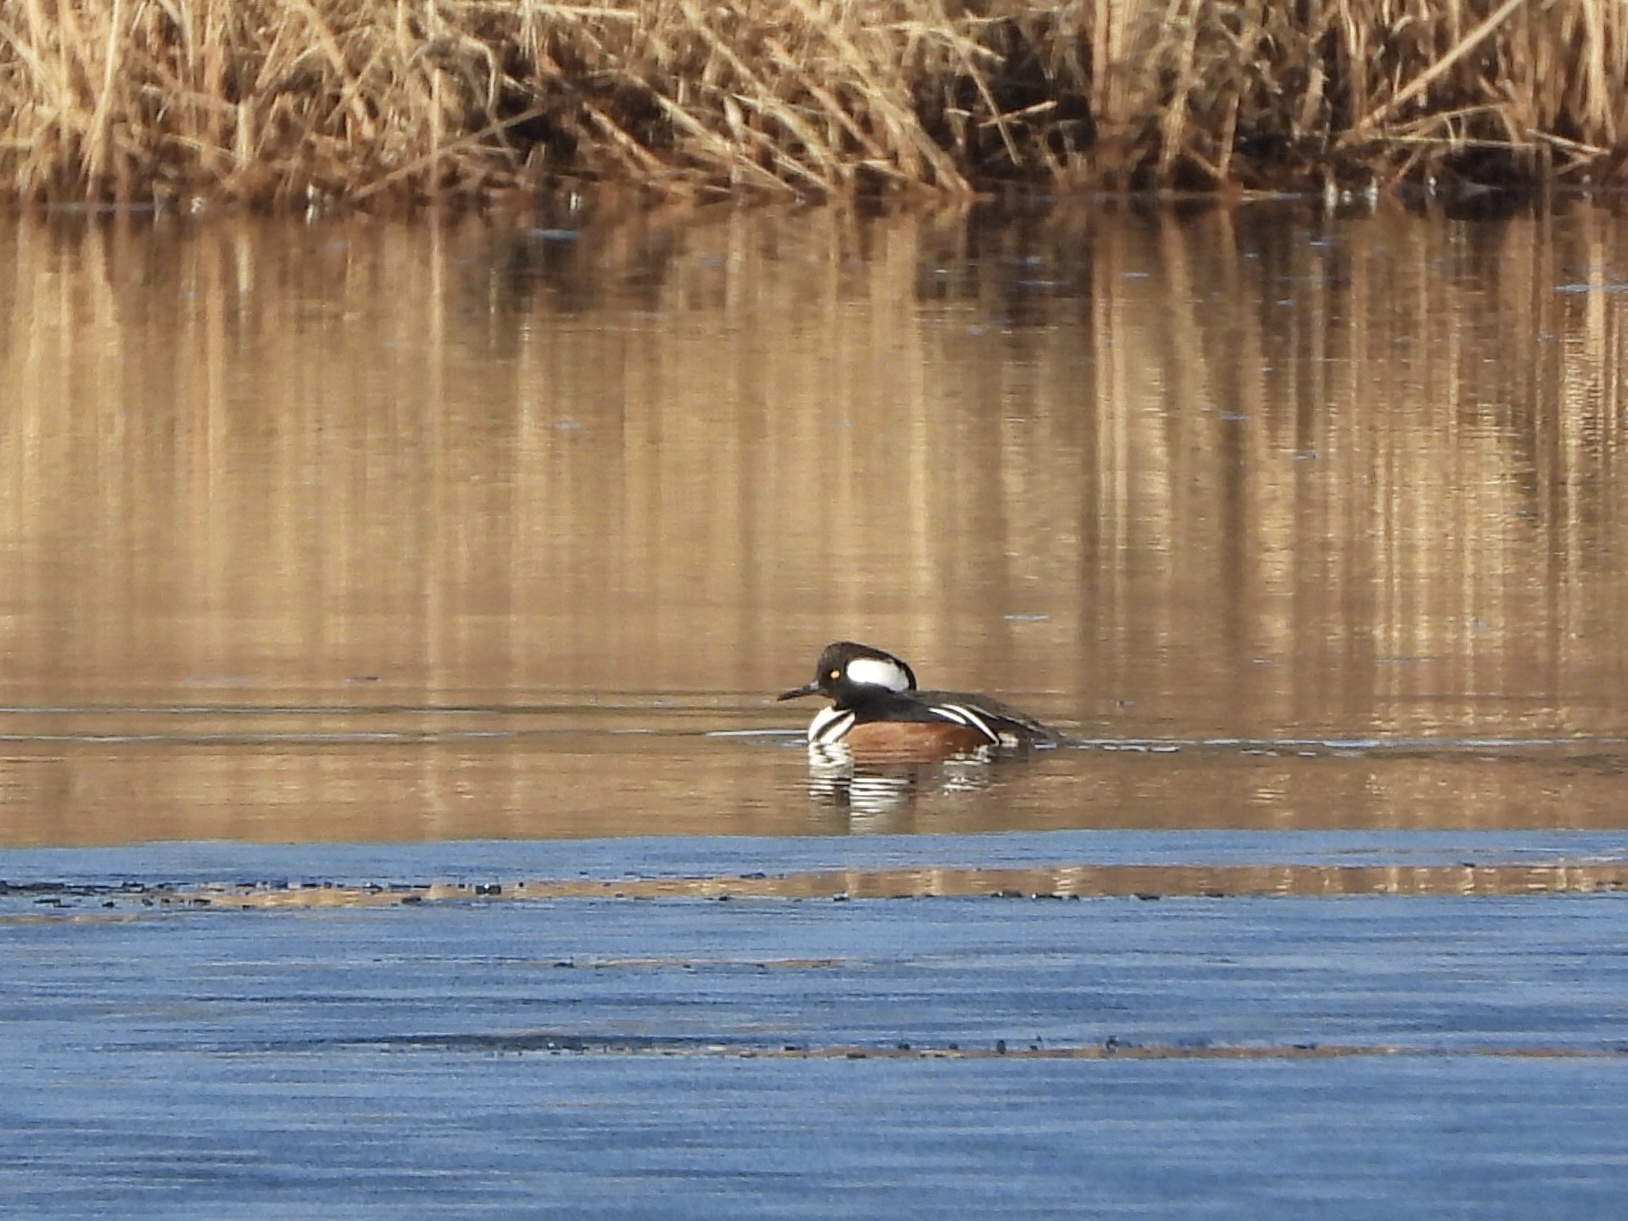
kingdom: Animalia
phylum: Chordata
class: Aves
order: Anseriformes
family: Anatidae
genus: Lophodytes
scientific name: Lophodytes cucullatus
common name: Hooded merganser
